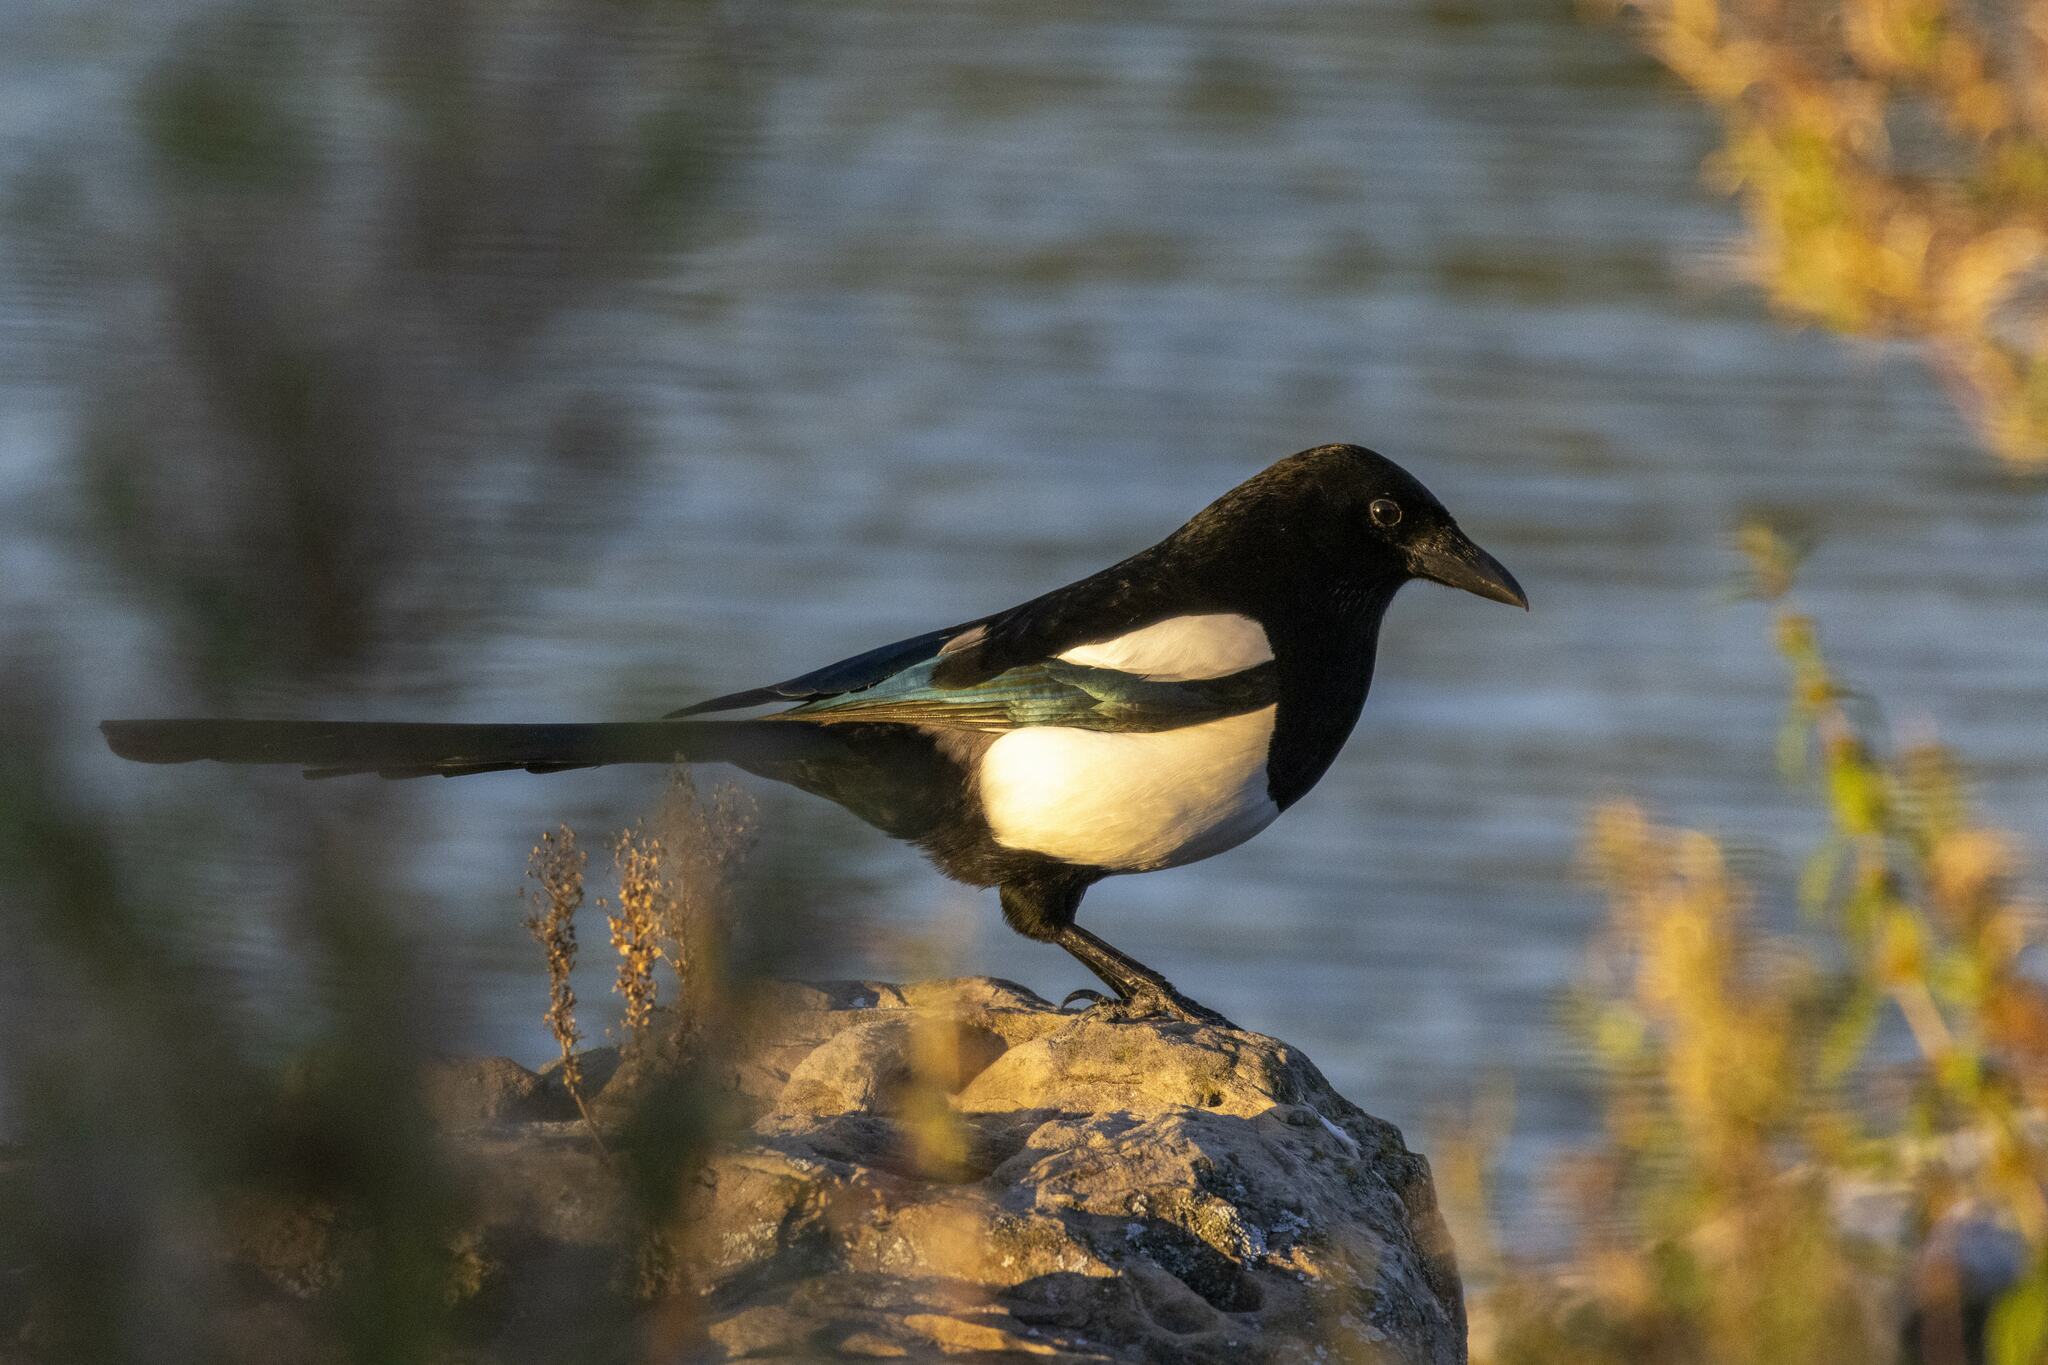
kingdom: Animalia
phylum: Chordata
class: Aves
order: Passeriformes
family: Corvidae
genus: Pica
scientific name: Pica pica
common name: Eurasian magpie
